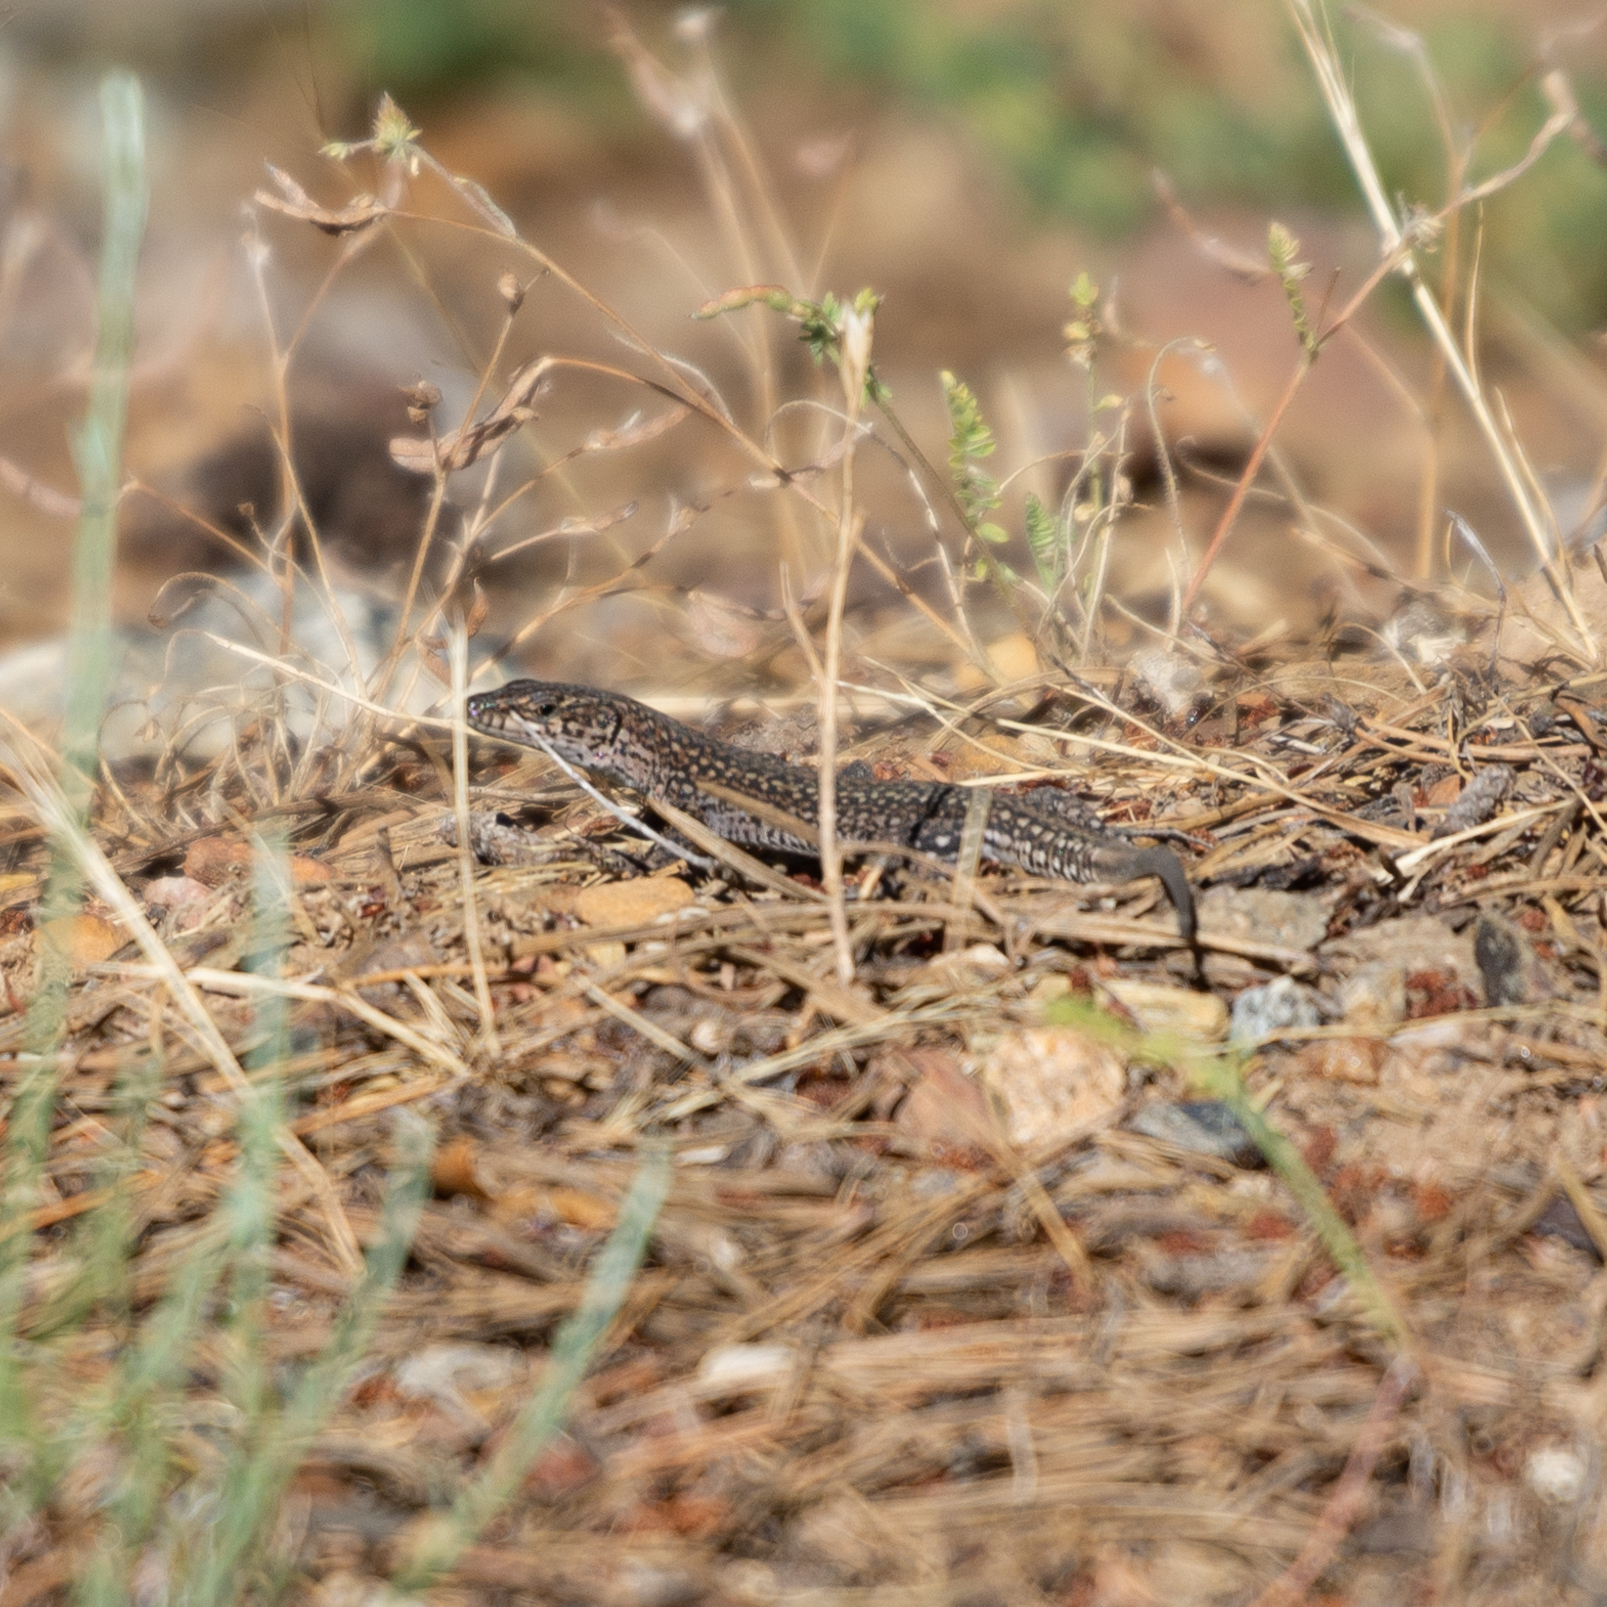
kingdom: Animalia
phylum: Chordata
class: Squamata
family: Lacertidae
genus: Podarcis
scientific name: Podarcis
